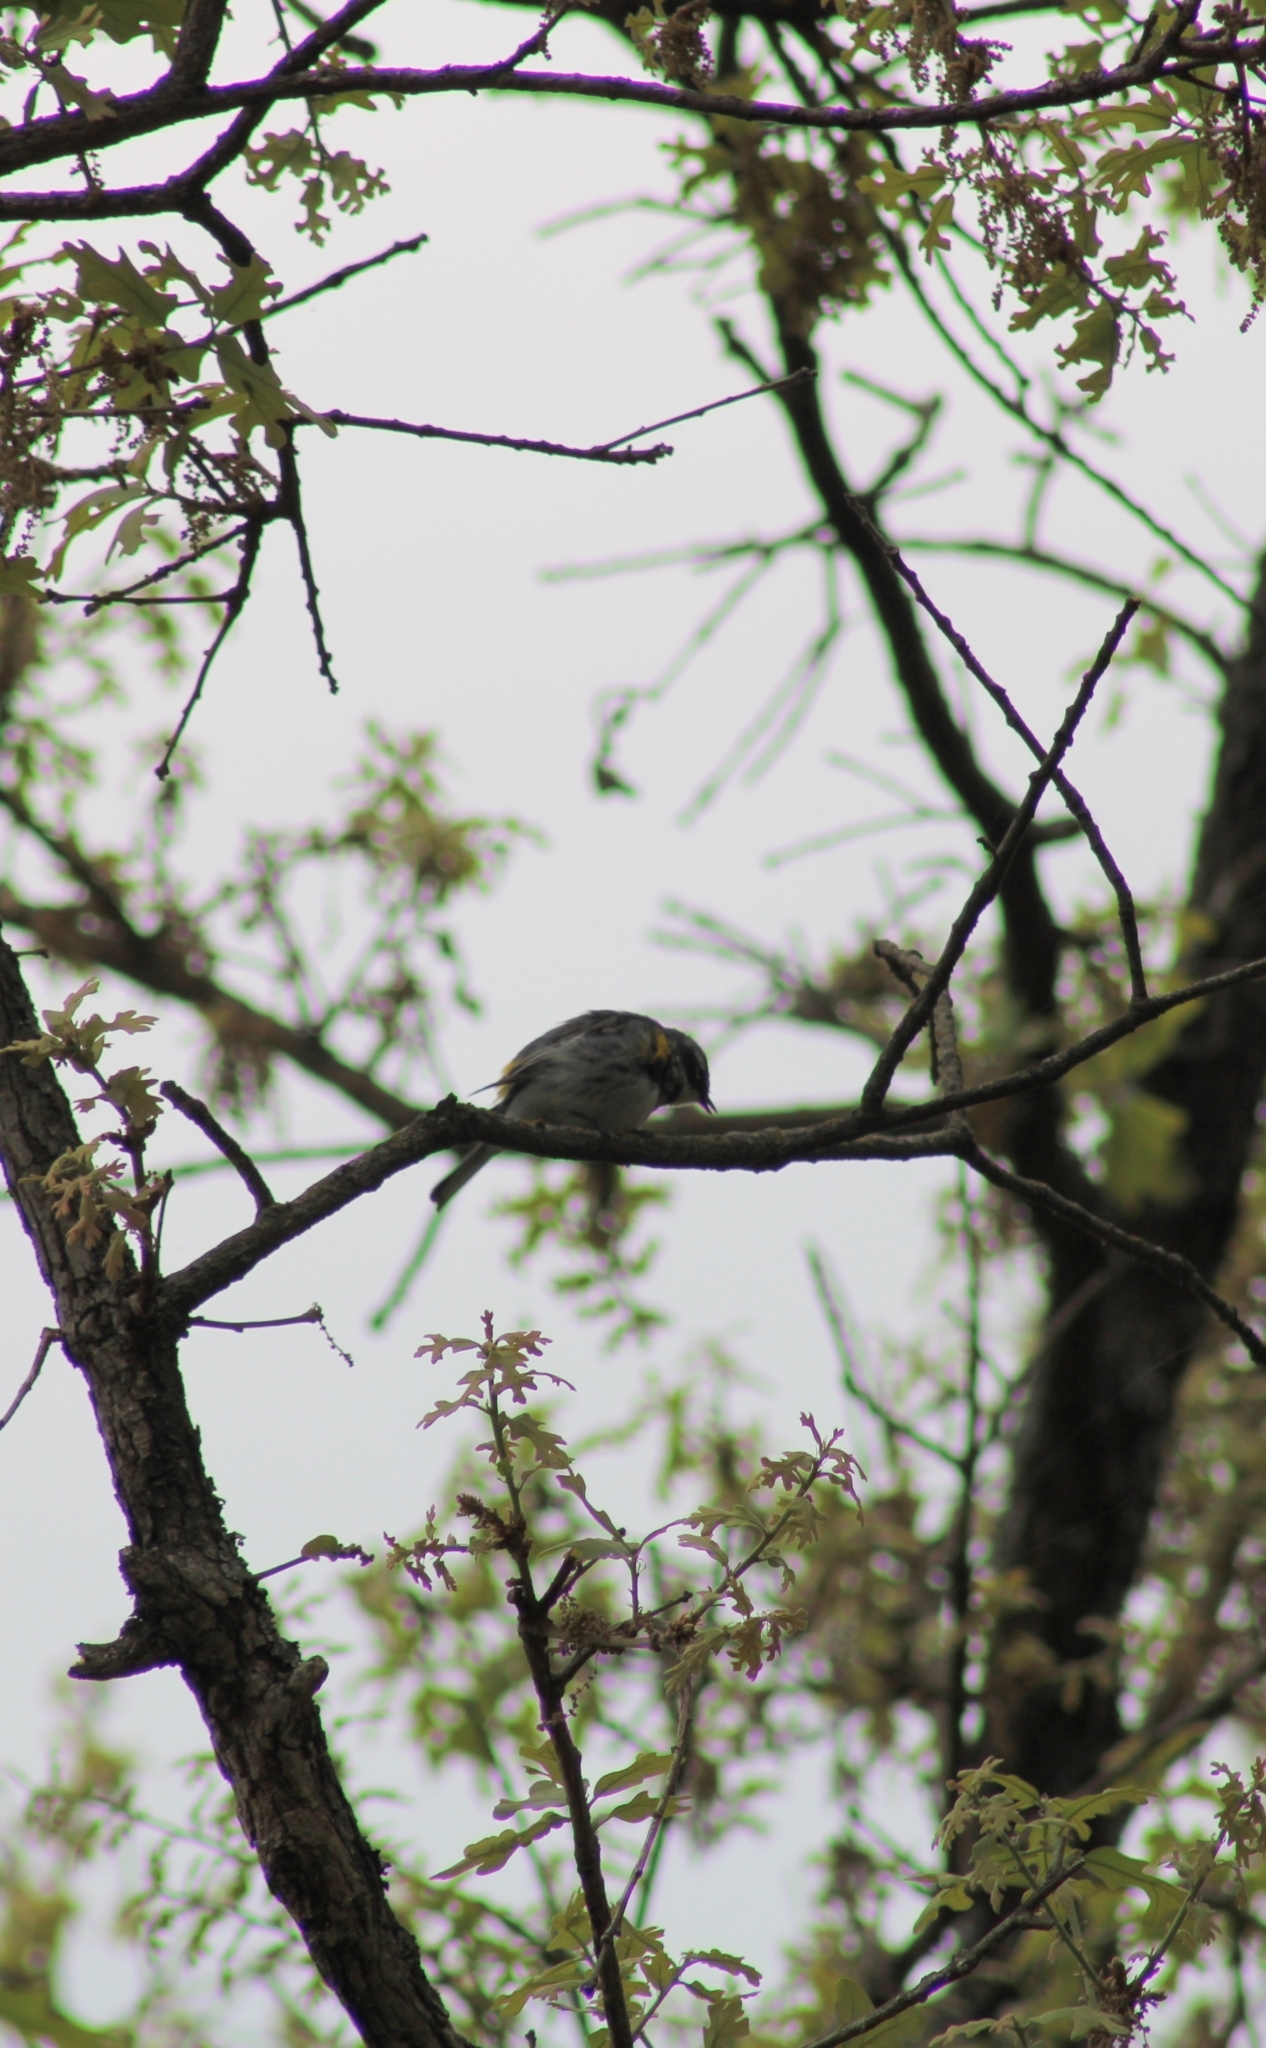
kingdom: Animalia
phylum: Chordata
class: Aves
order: Passeriformes
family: Parulidae
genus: Setophaga
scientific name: Setophaga coronata
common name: Myrtle warbler
